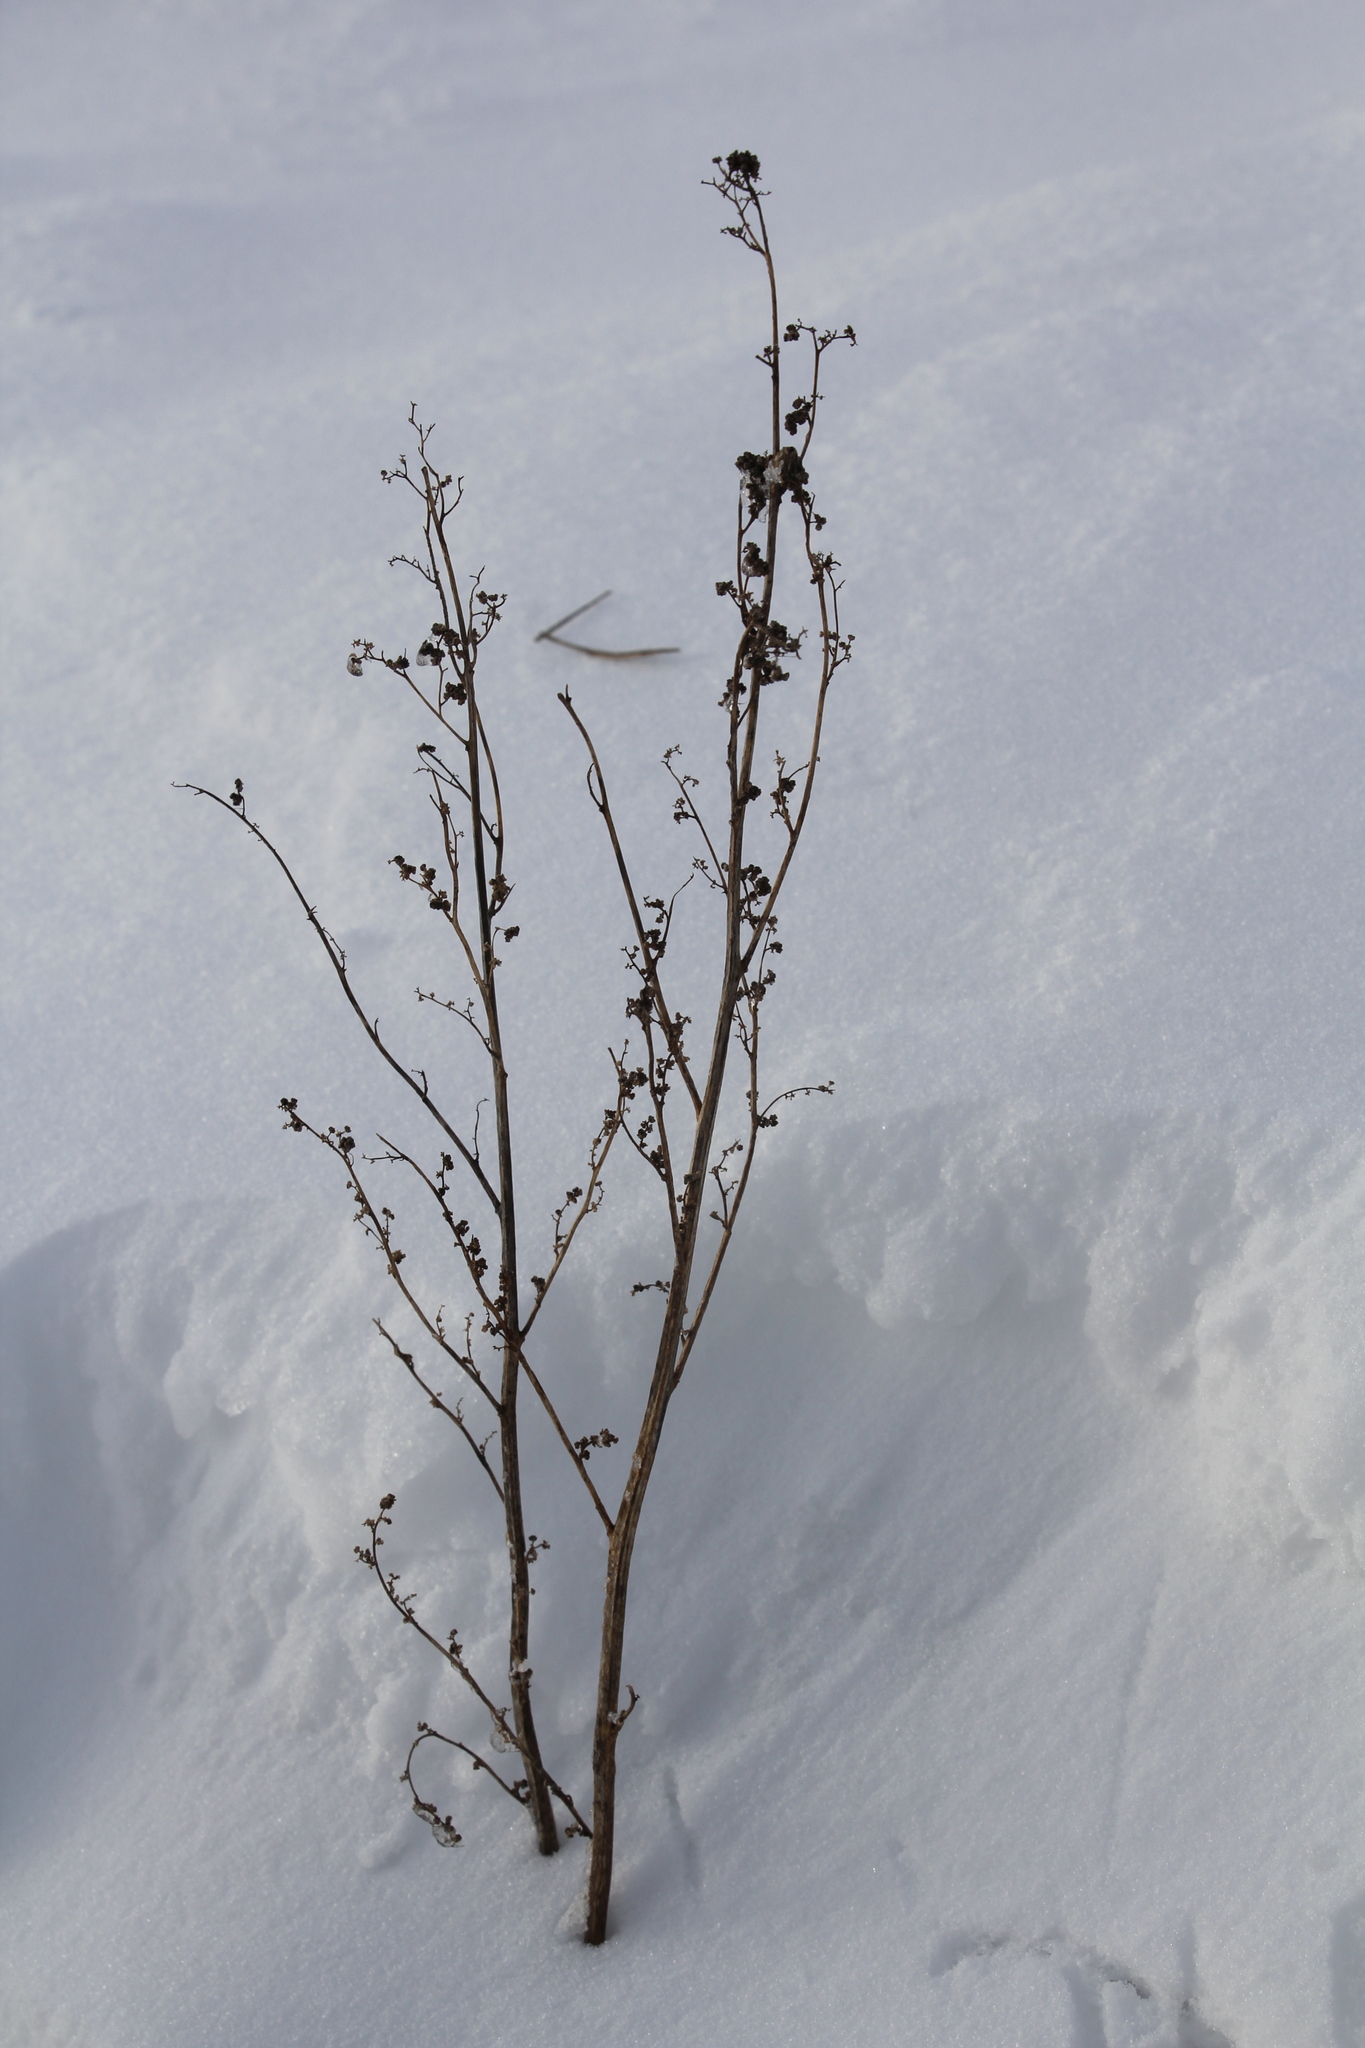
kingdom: Plantae
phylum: Tracheophyta
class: Magnoliopsida
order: Caryophyllales
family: Amaranthaceae
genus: Chenopodium
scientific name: Chenopodium album
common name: Fat-hen
